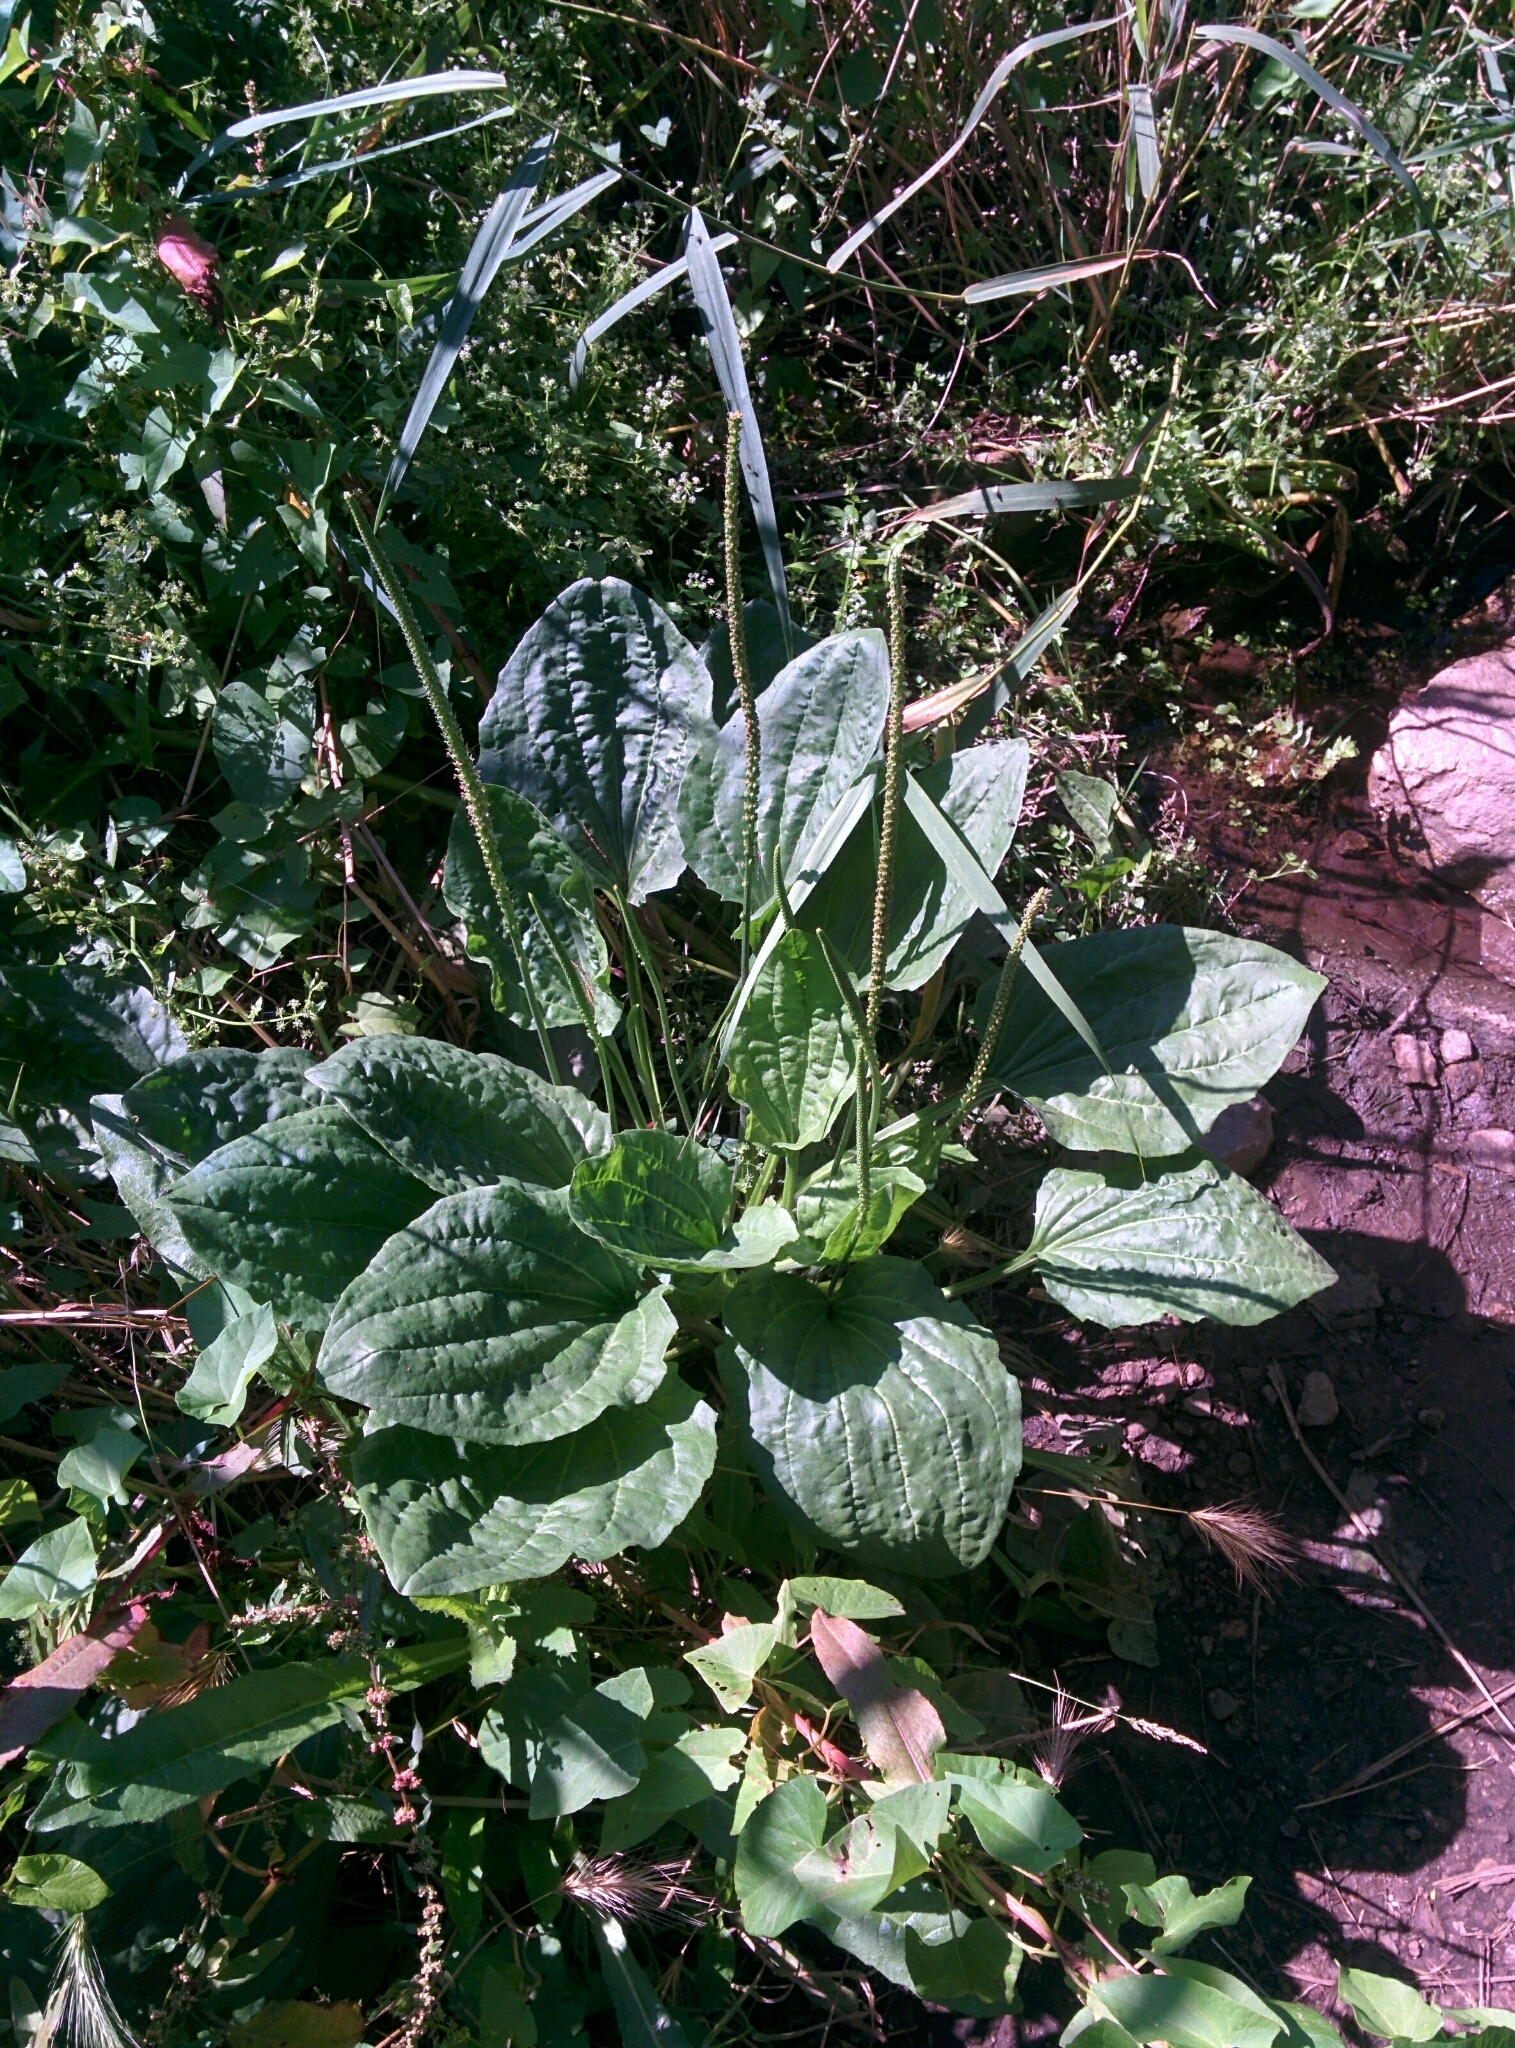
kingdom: Plantae
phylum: Tracheophyta
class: Magnoliopsida
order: Lamiales
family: Plantaginaceae
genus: Plantago
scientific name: Plantago major
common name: Common plantain
